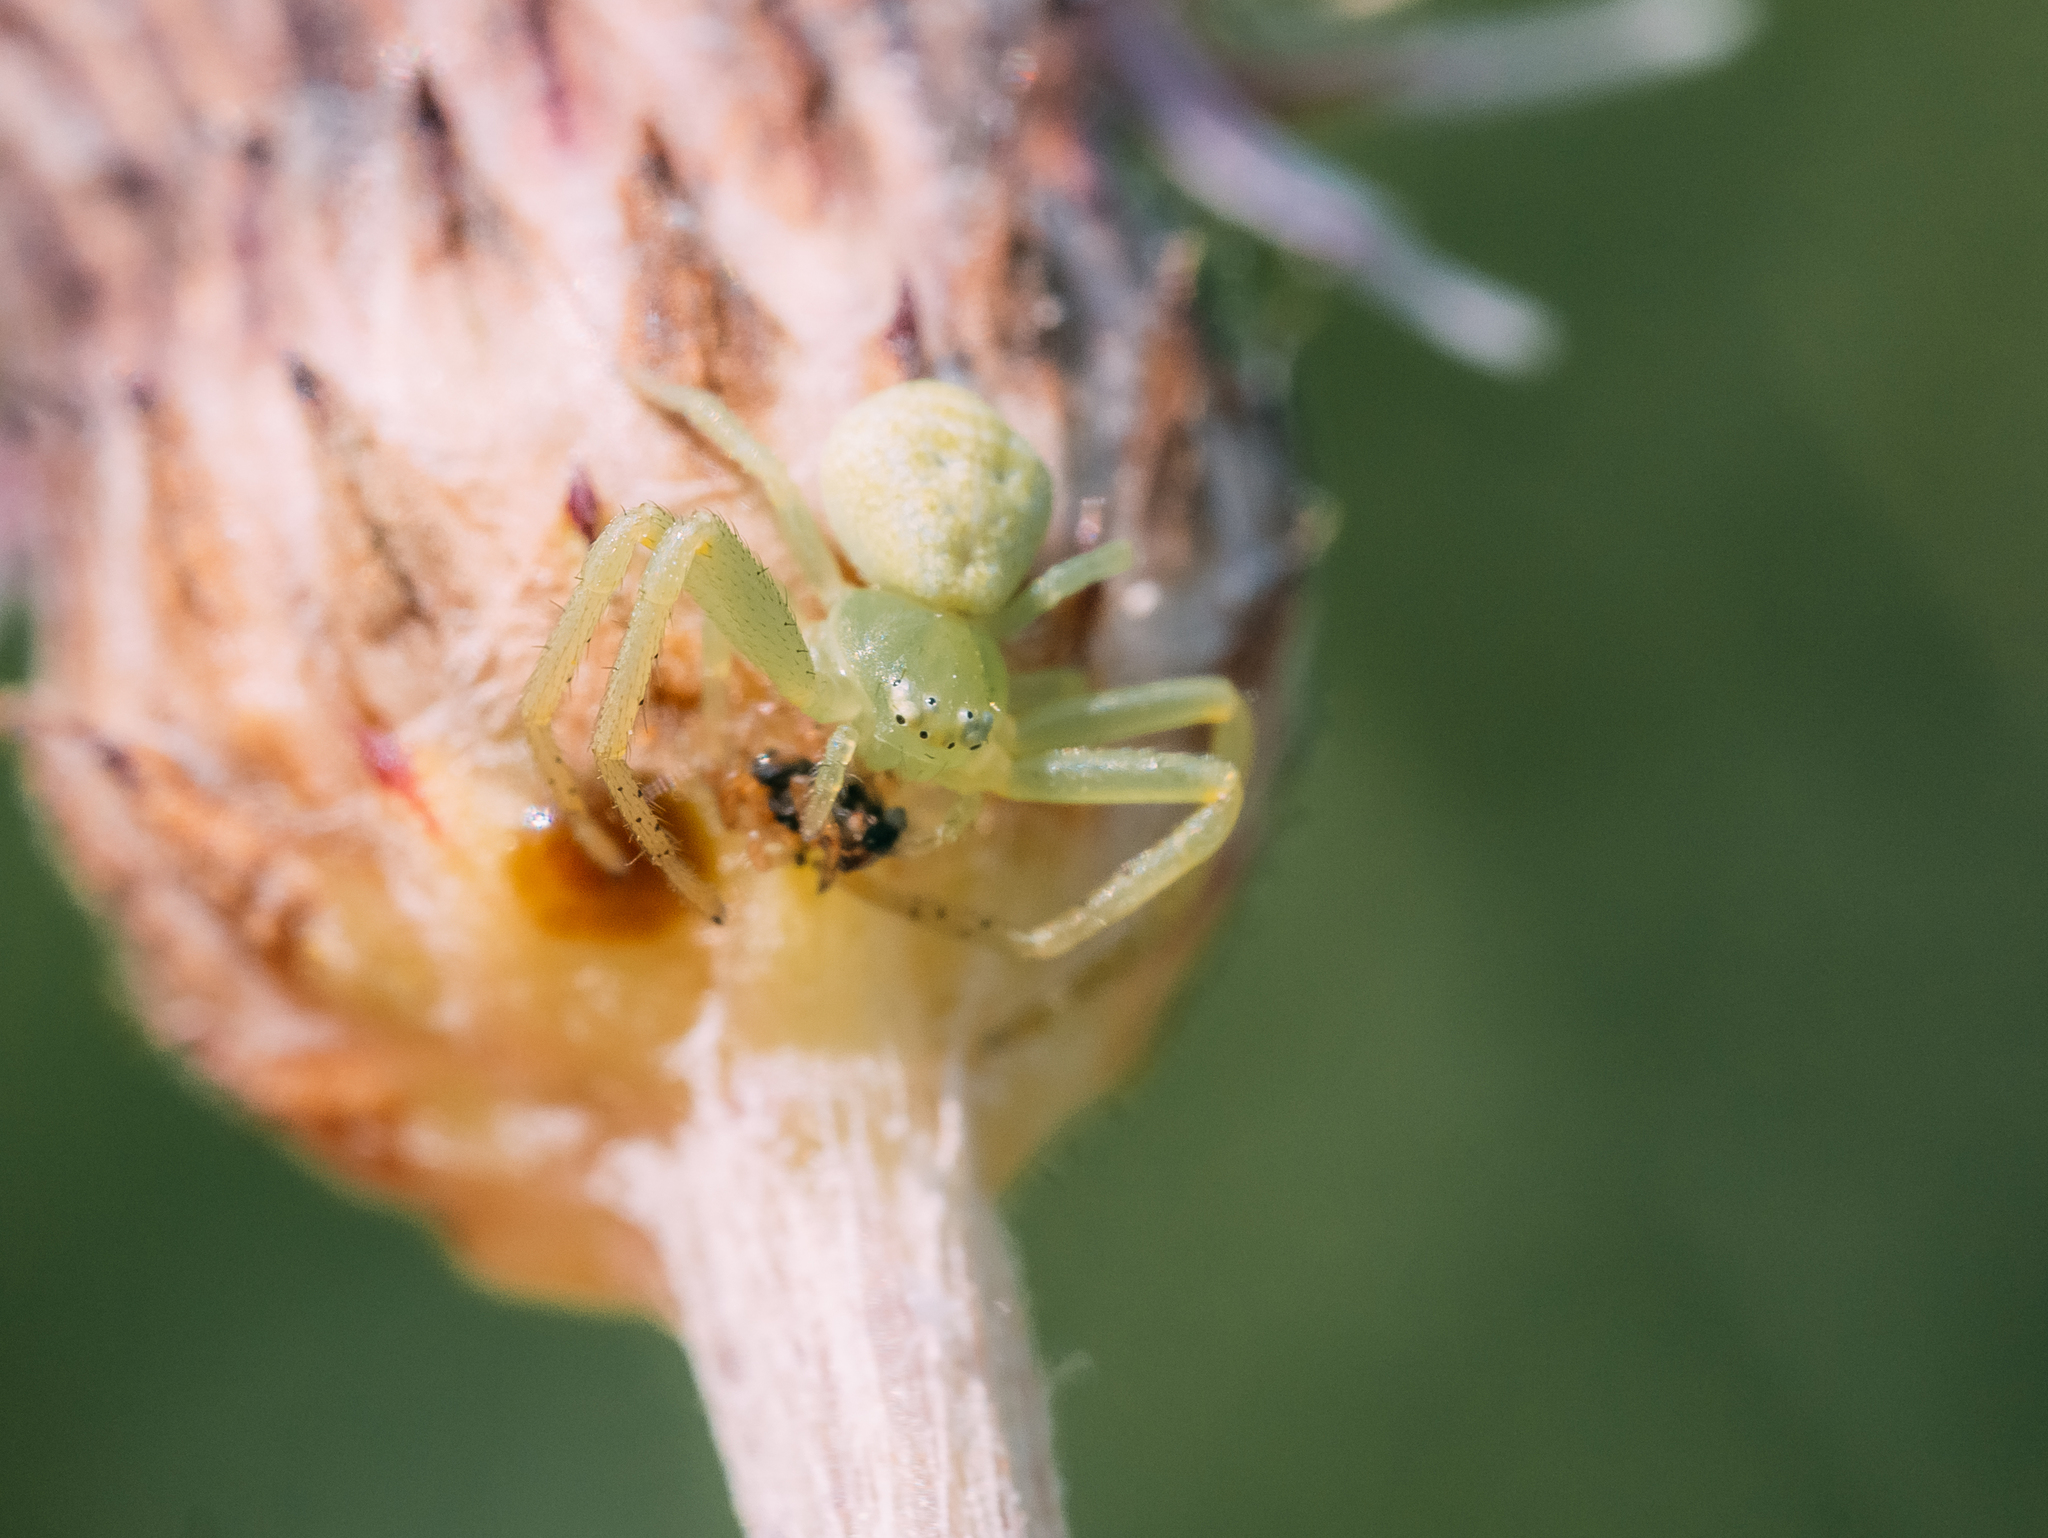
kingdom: Animalia
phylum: Arthropoda
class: Arachnida
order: Araneae
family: Thomisidae
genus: Ebrechtella
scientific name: Ebrechtella tricuspidata
